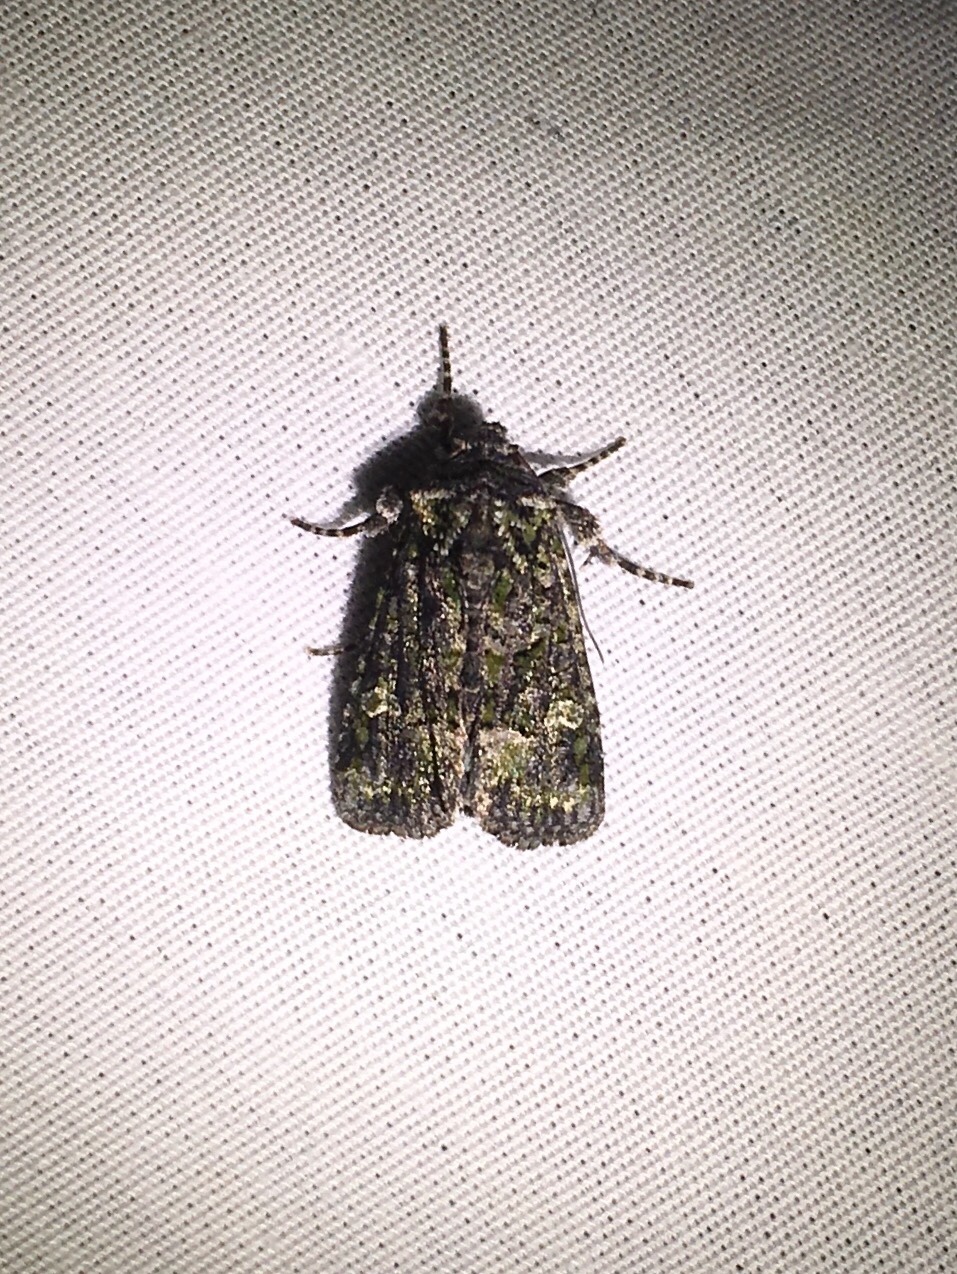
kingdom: Animalia
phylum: Arthropoda
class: Insecta
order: Lepidoptera
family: Noctuidae
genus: Lacinipolia
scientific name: Lacinipolia olivacea
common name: Olive arches moth
